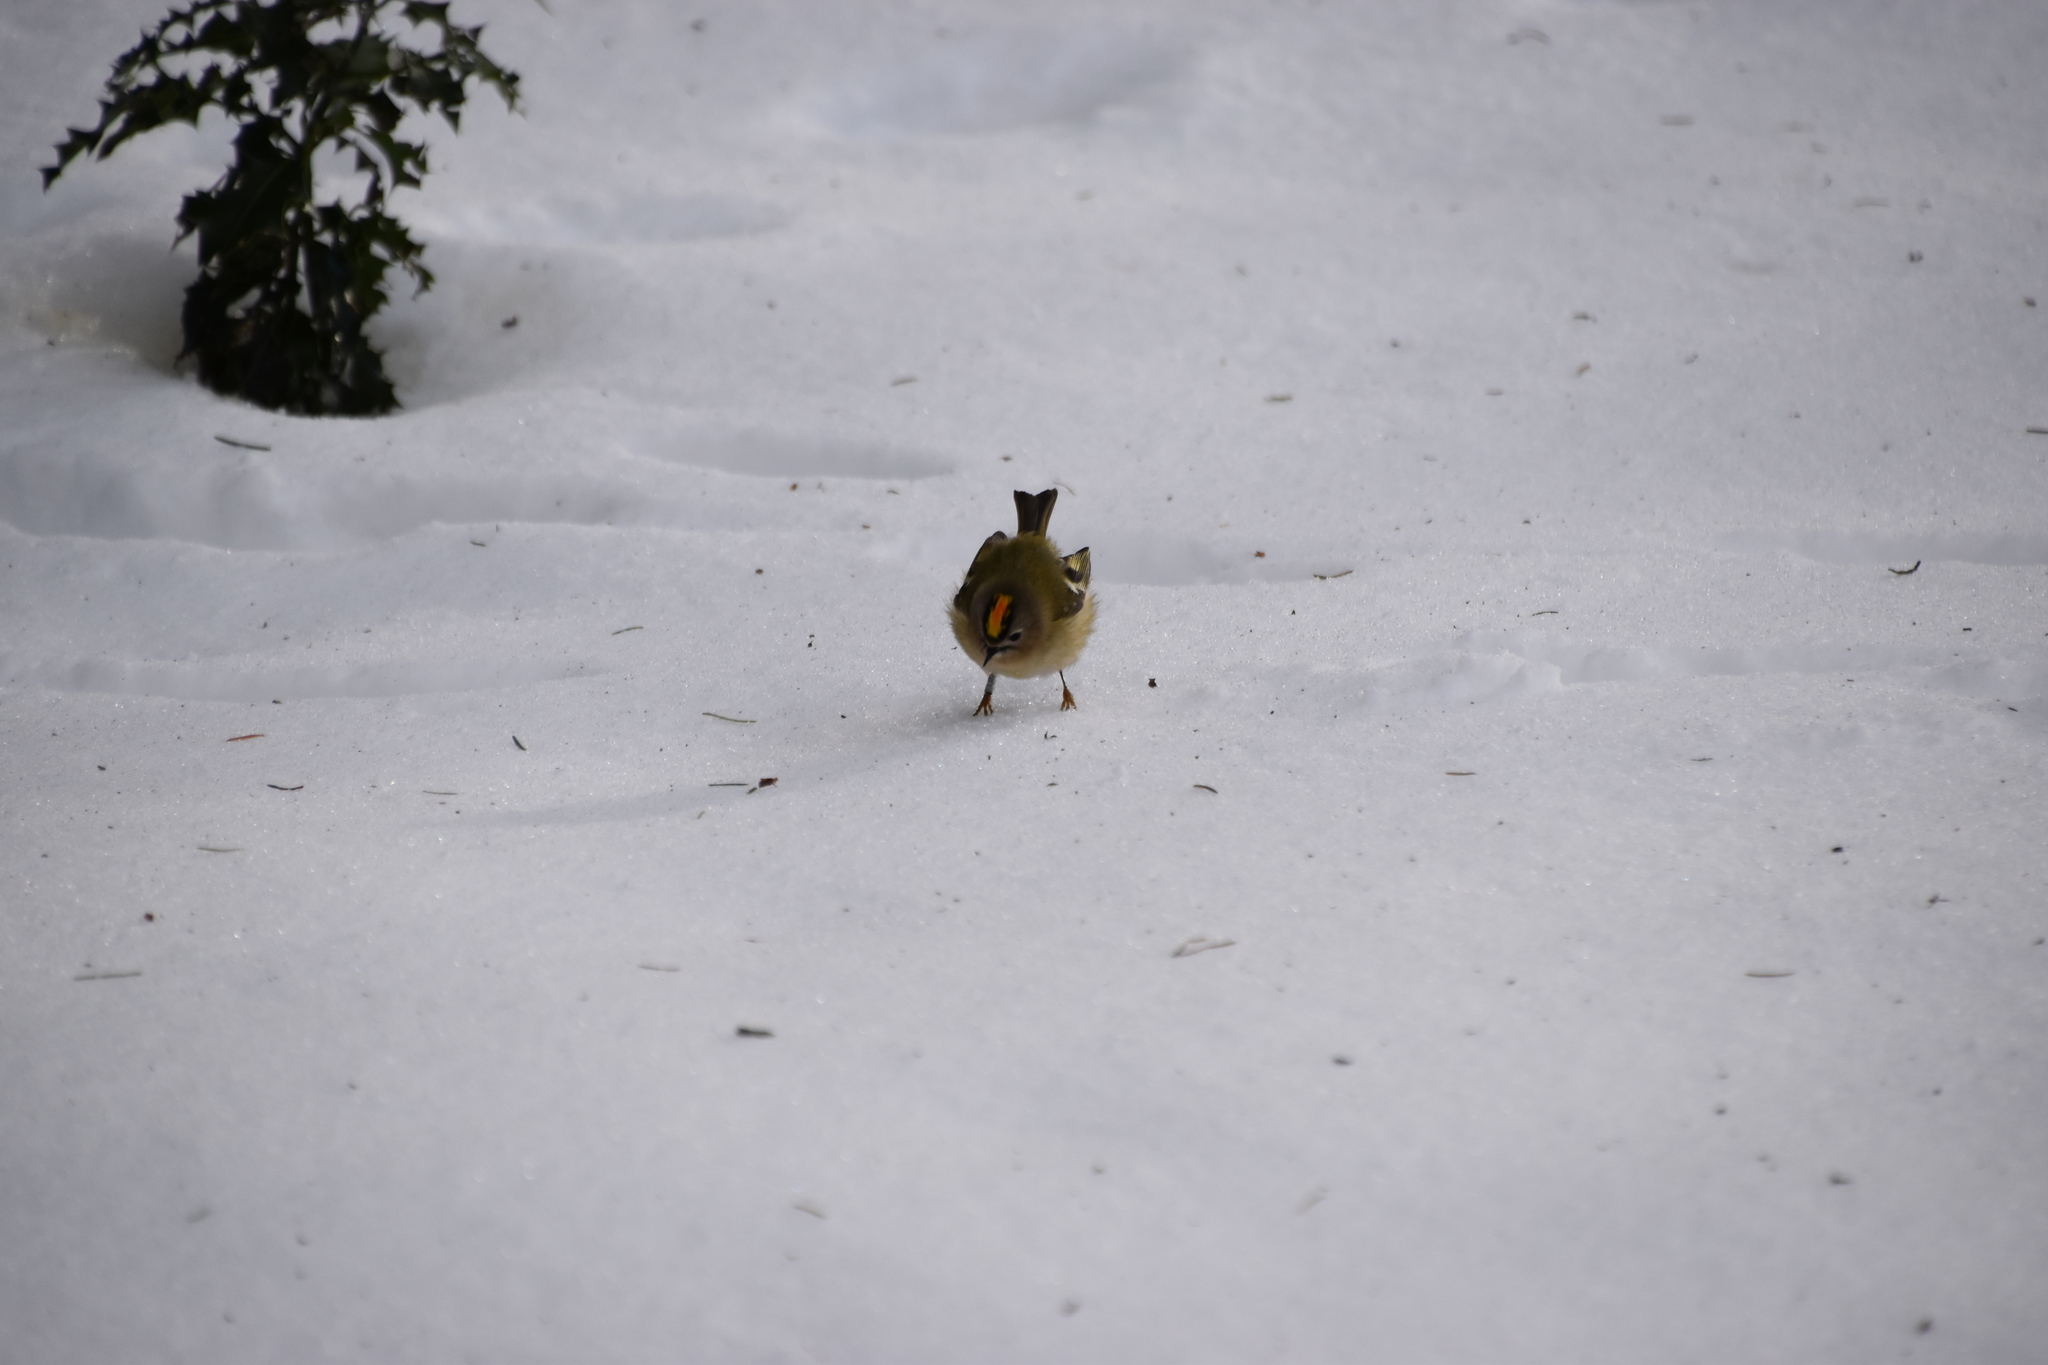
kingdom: Animalia
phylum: Chordata
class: Aves
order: Passeriformes
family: Regulidae
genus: Regulus
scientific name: Regulus regulus
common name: Goldcrest
